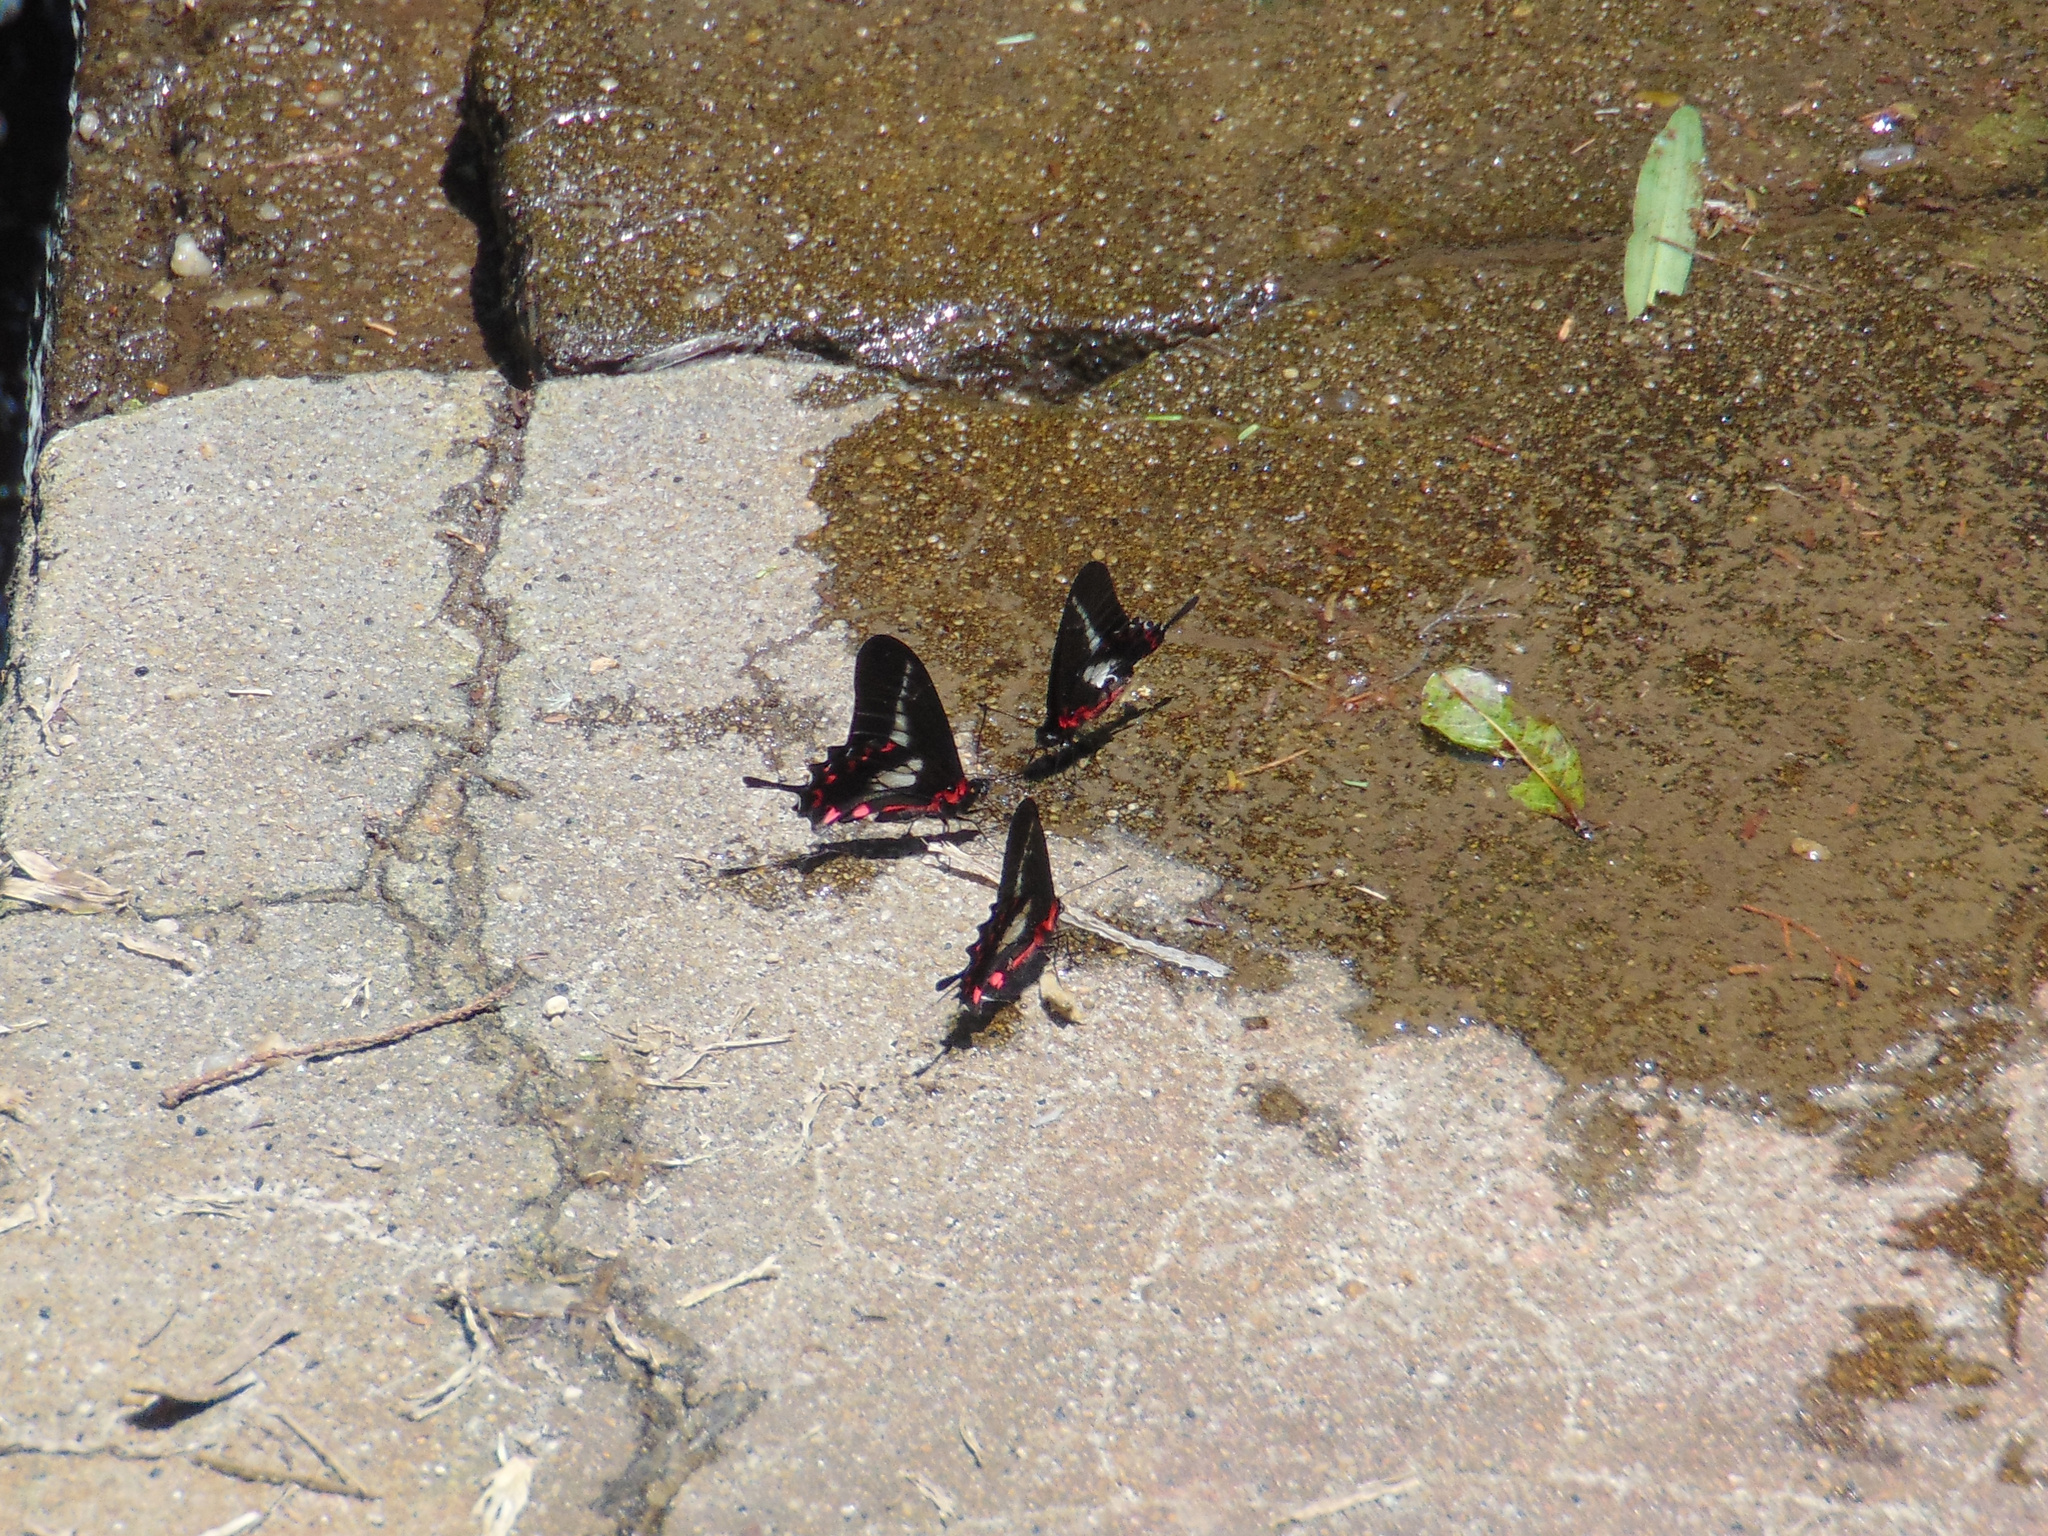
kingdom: Animalia
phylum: Arthropoda
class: Insecta
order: Lepidoptera
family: Papilionidae
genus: Mimoides
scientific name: Mimoides lysithous
